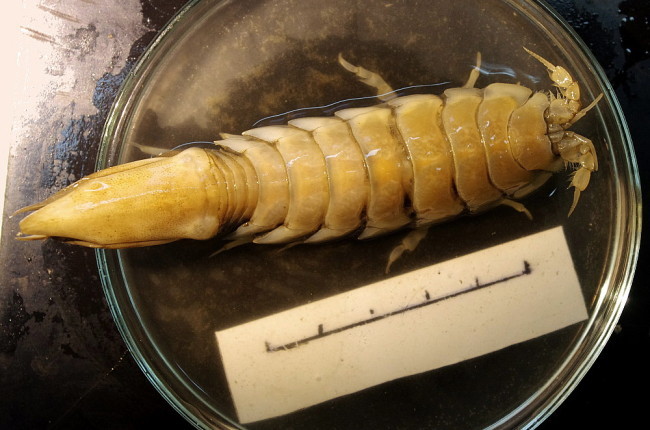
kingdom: Animalia
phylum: Arthropoda
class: Malacostraca
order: Isopoda
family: Chaetiliidae
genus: Saduria
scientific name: Saduria sabini
